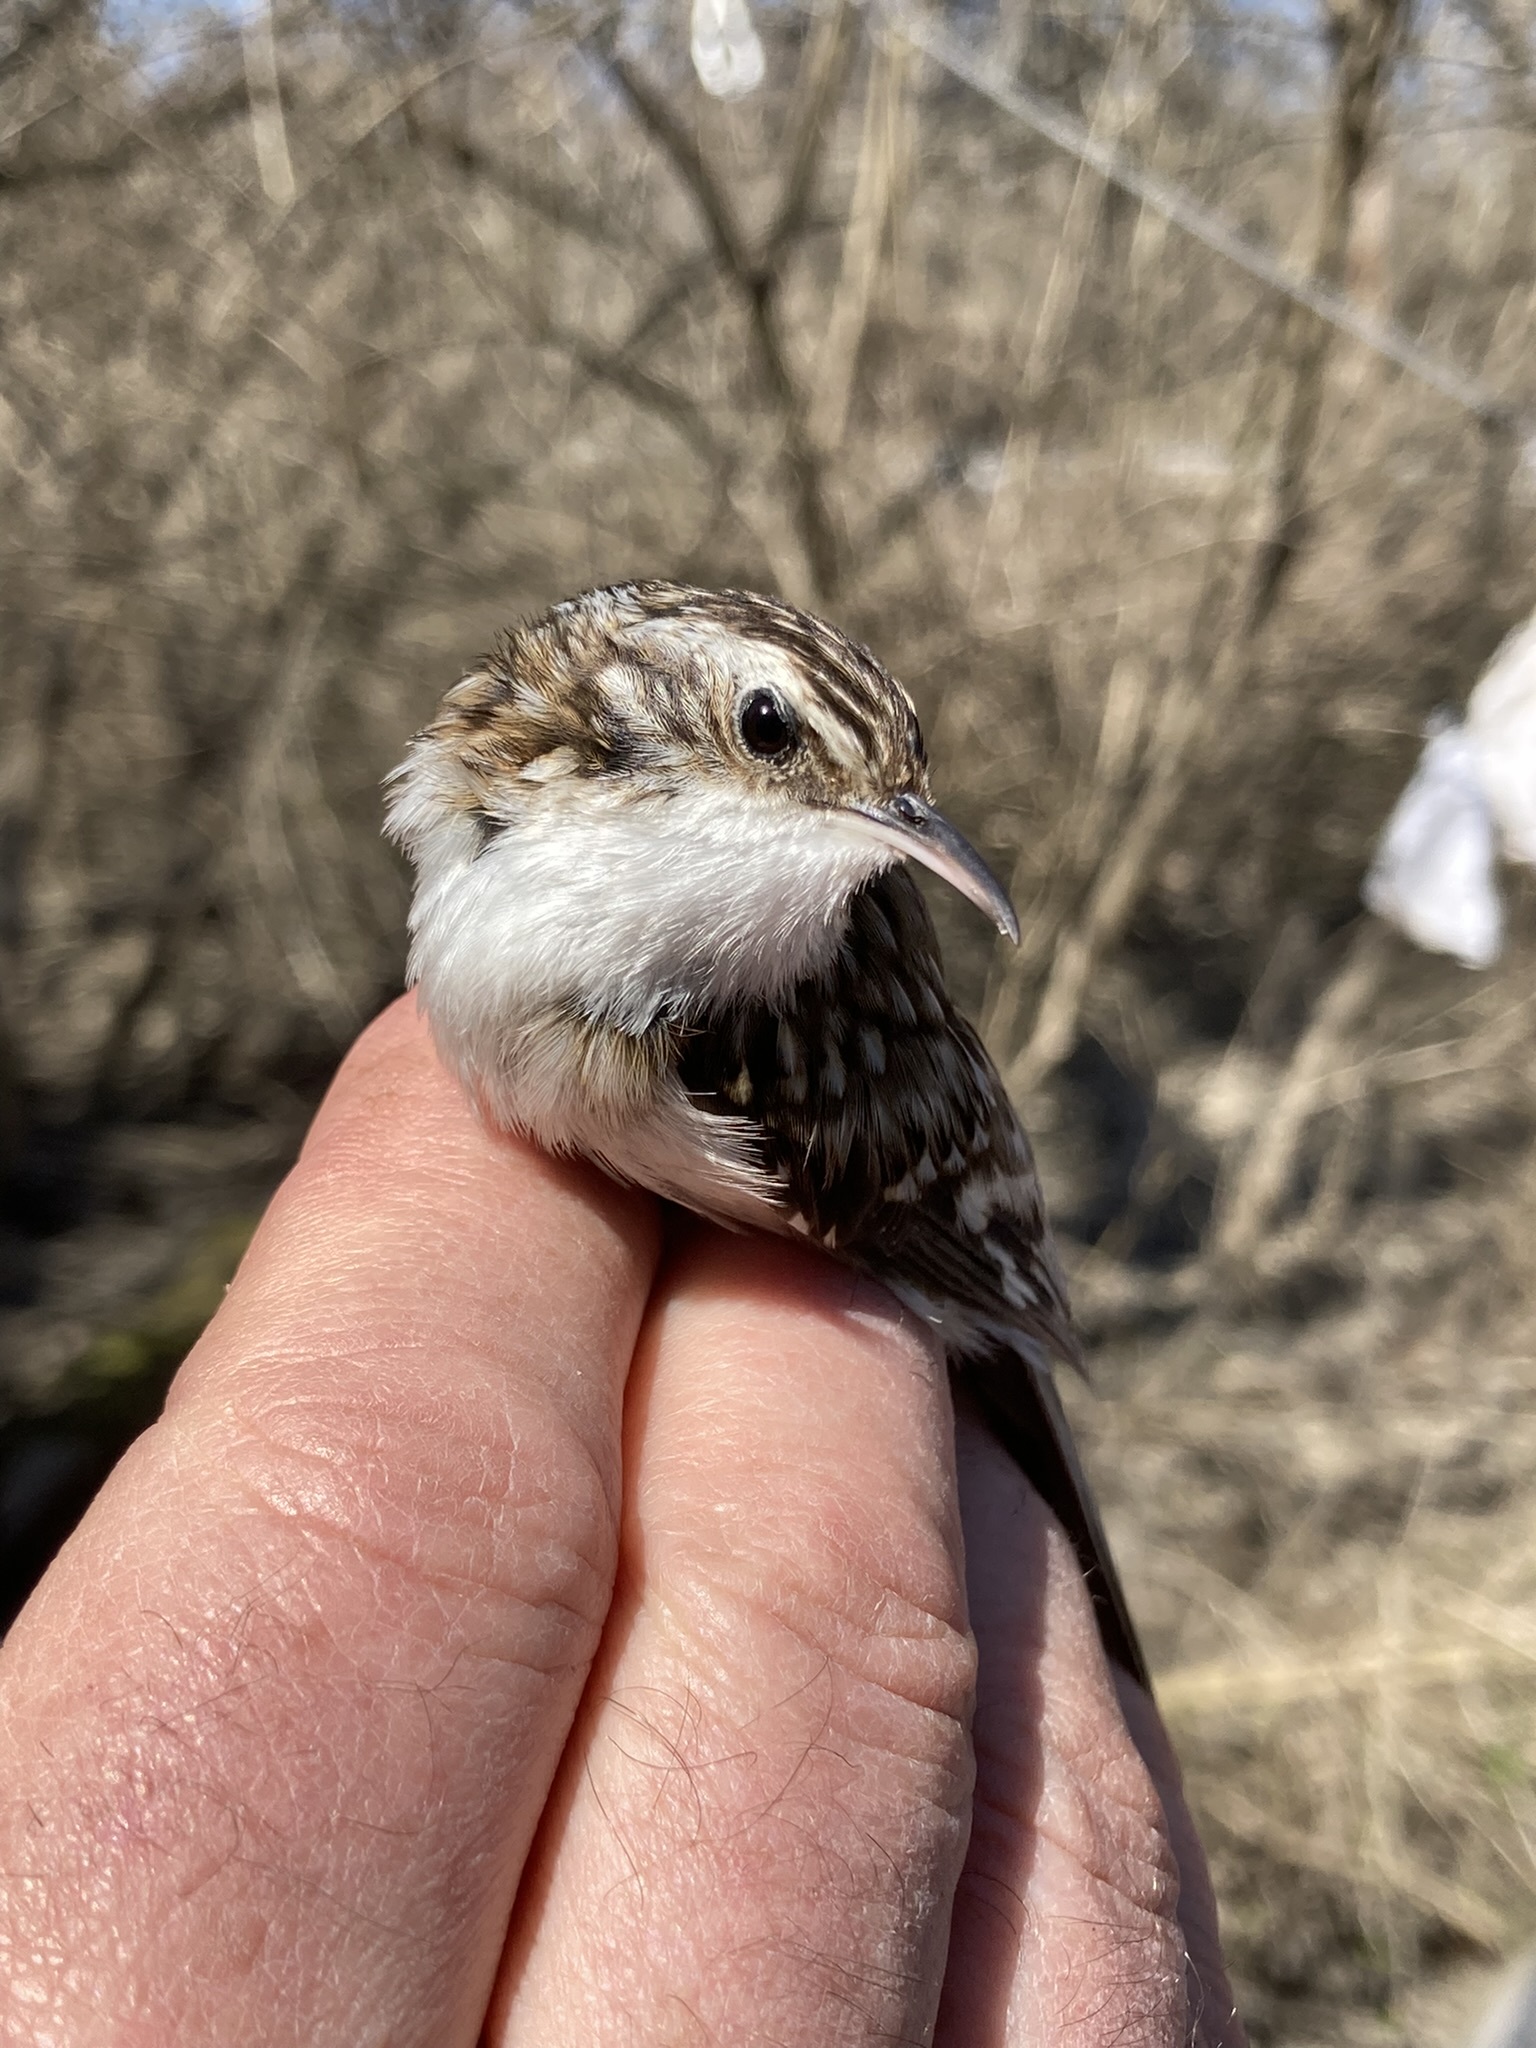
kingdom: Animalia
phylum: Chordata
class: Aves
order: Passeriformes
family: Certhiidae
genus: Certhia
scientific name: Certhia americana
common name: Brown creeper
